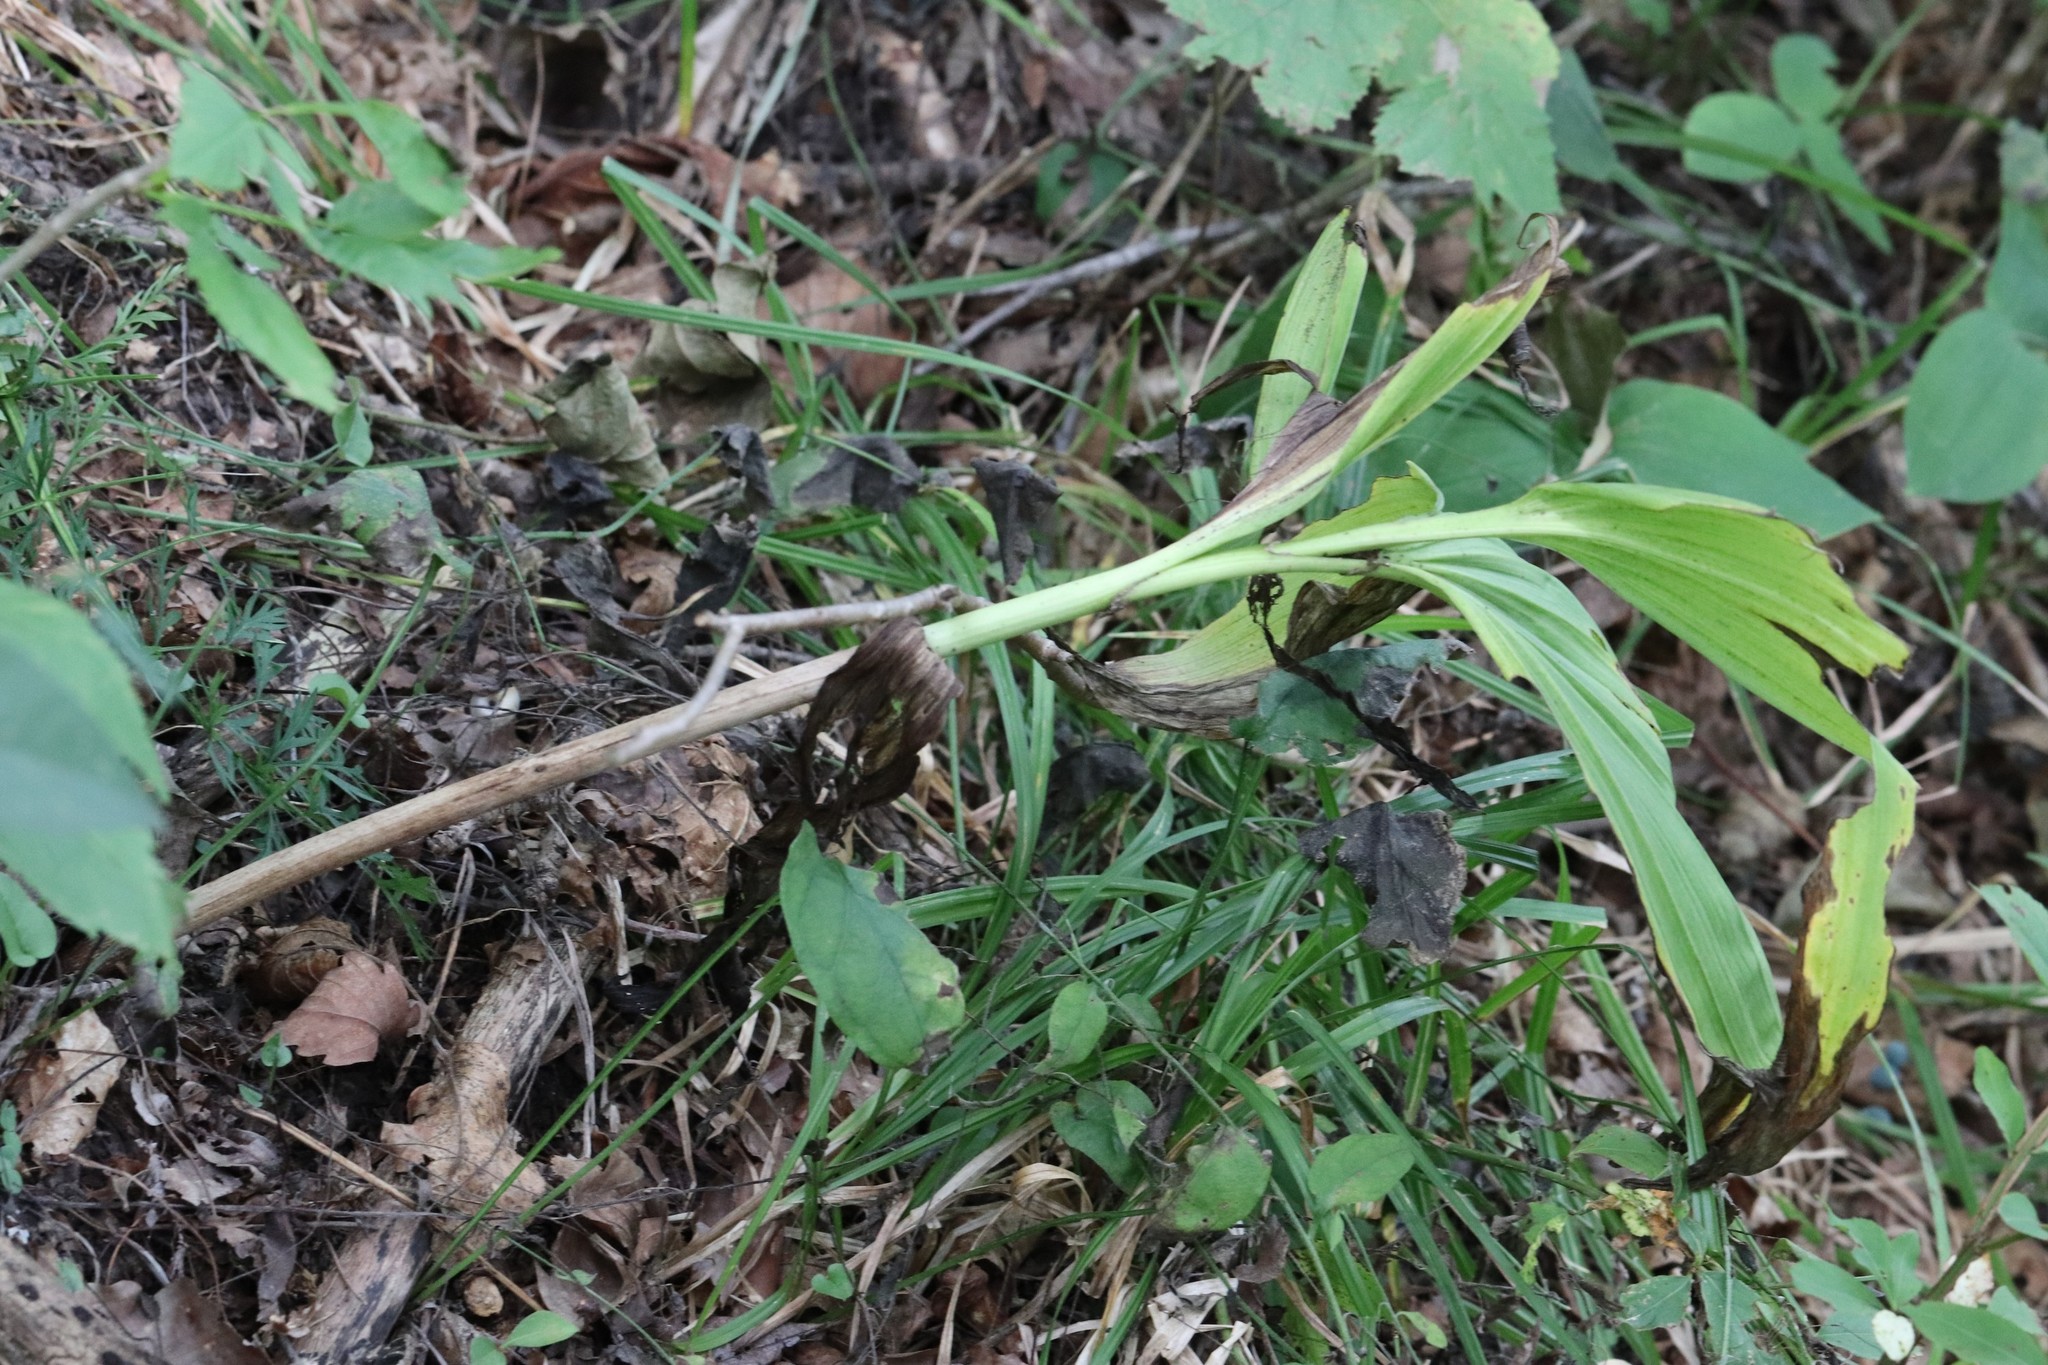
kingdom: Plantae
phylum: Tracheophyta
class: Liliopsida
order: Liliales
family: Melanthiaceae
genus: Veratrum
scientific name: Veratrum nigrum
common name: Black veratrum
